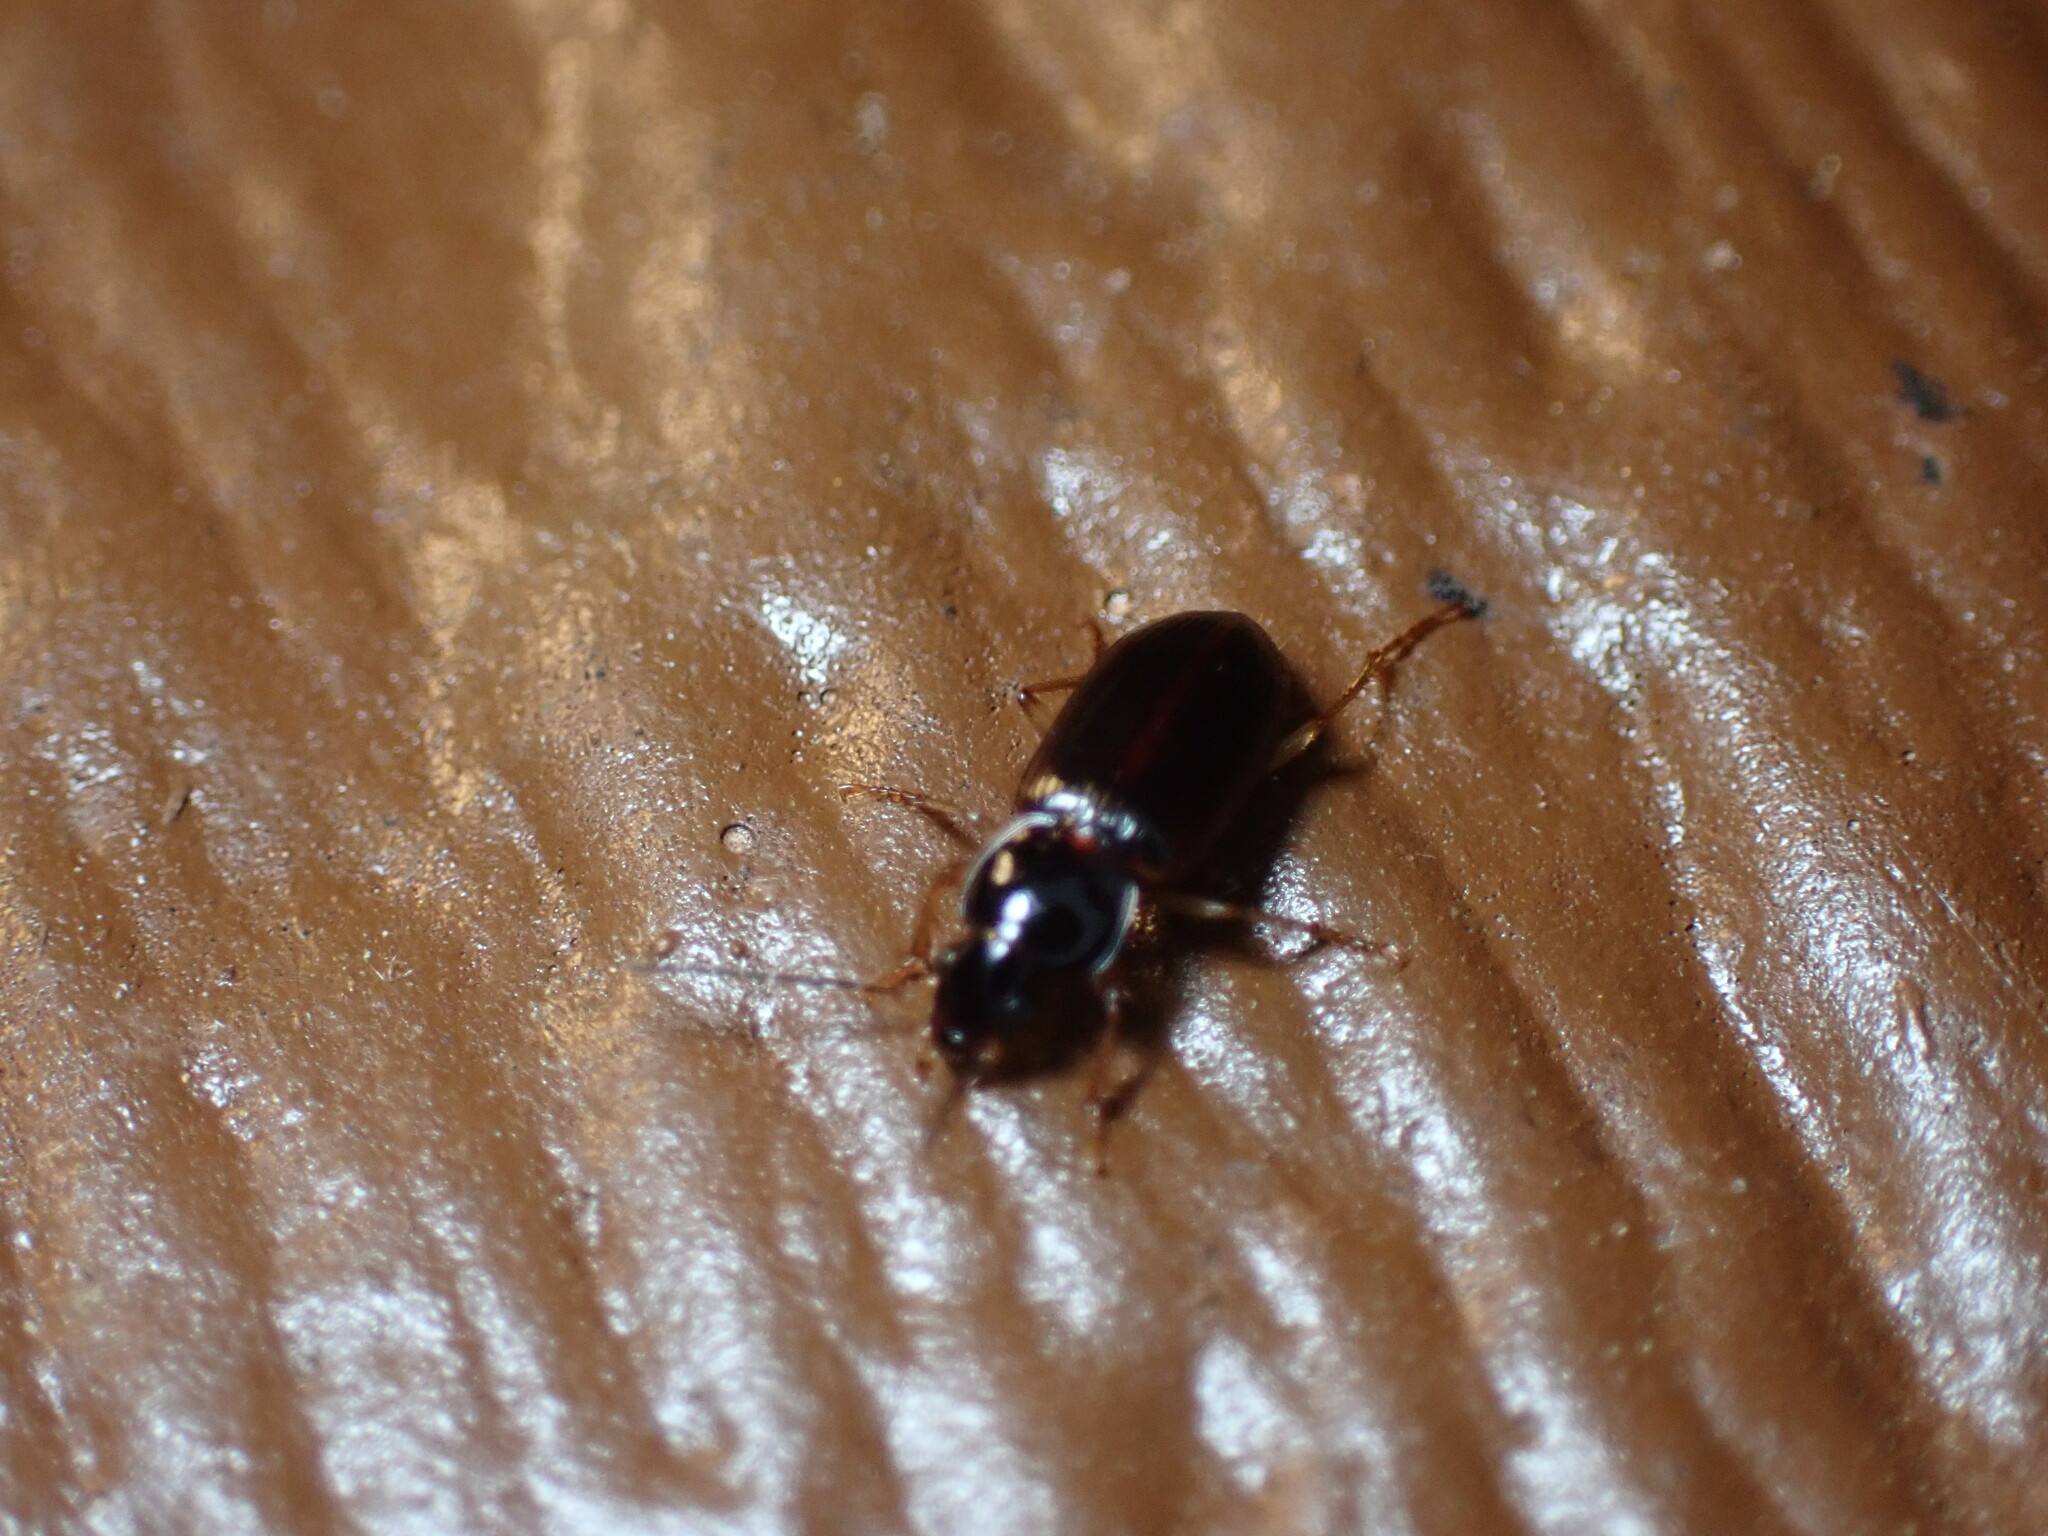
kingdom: Animalia
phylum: Arthropoda
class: Insecta
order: Coleoptera
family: Carabidae
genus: Stenolophus
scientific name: Stenolophus ochropezus
